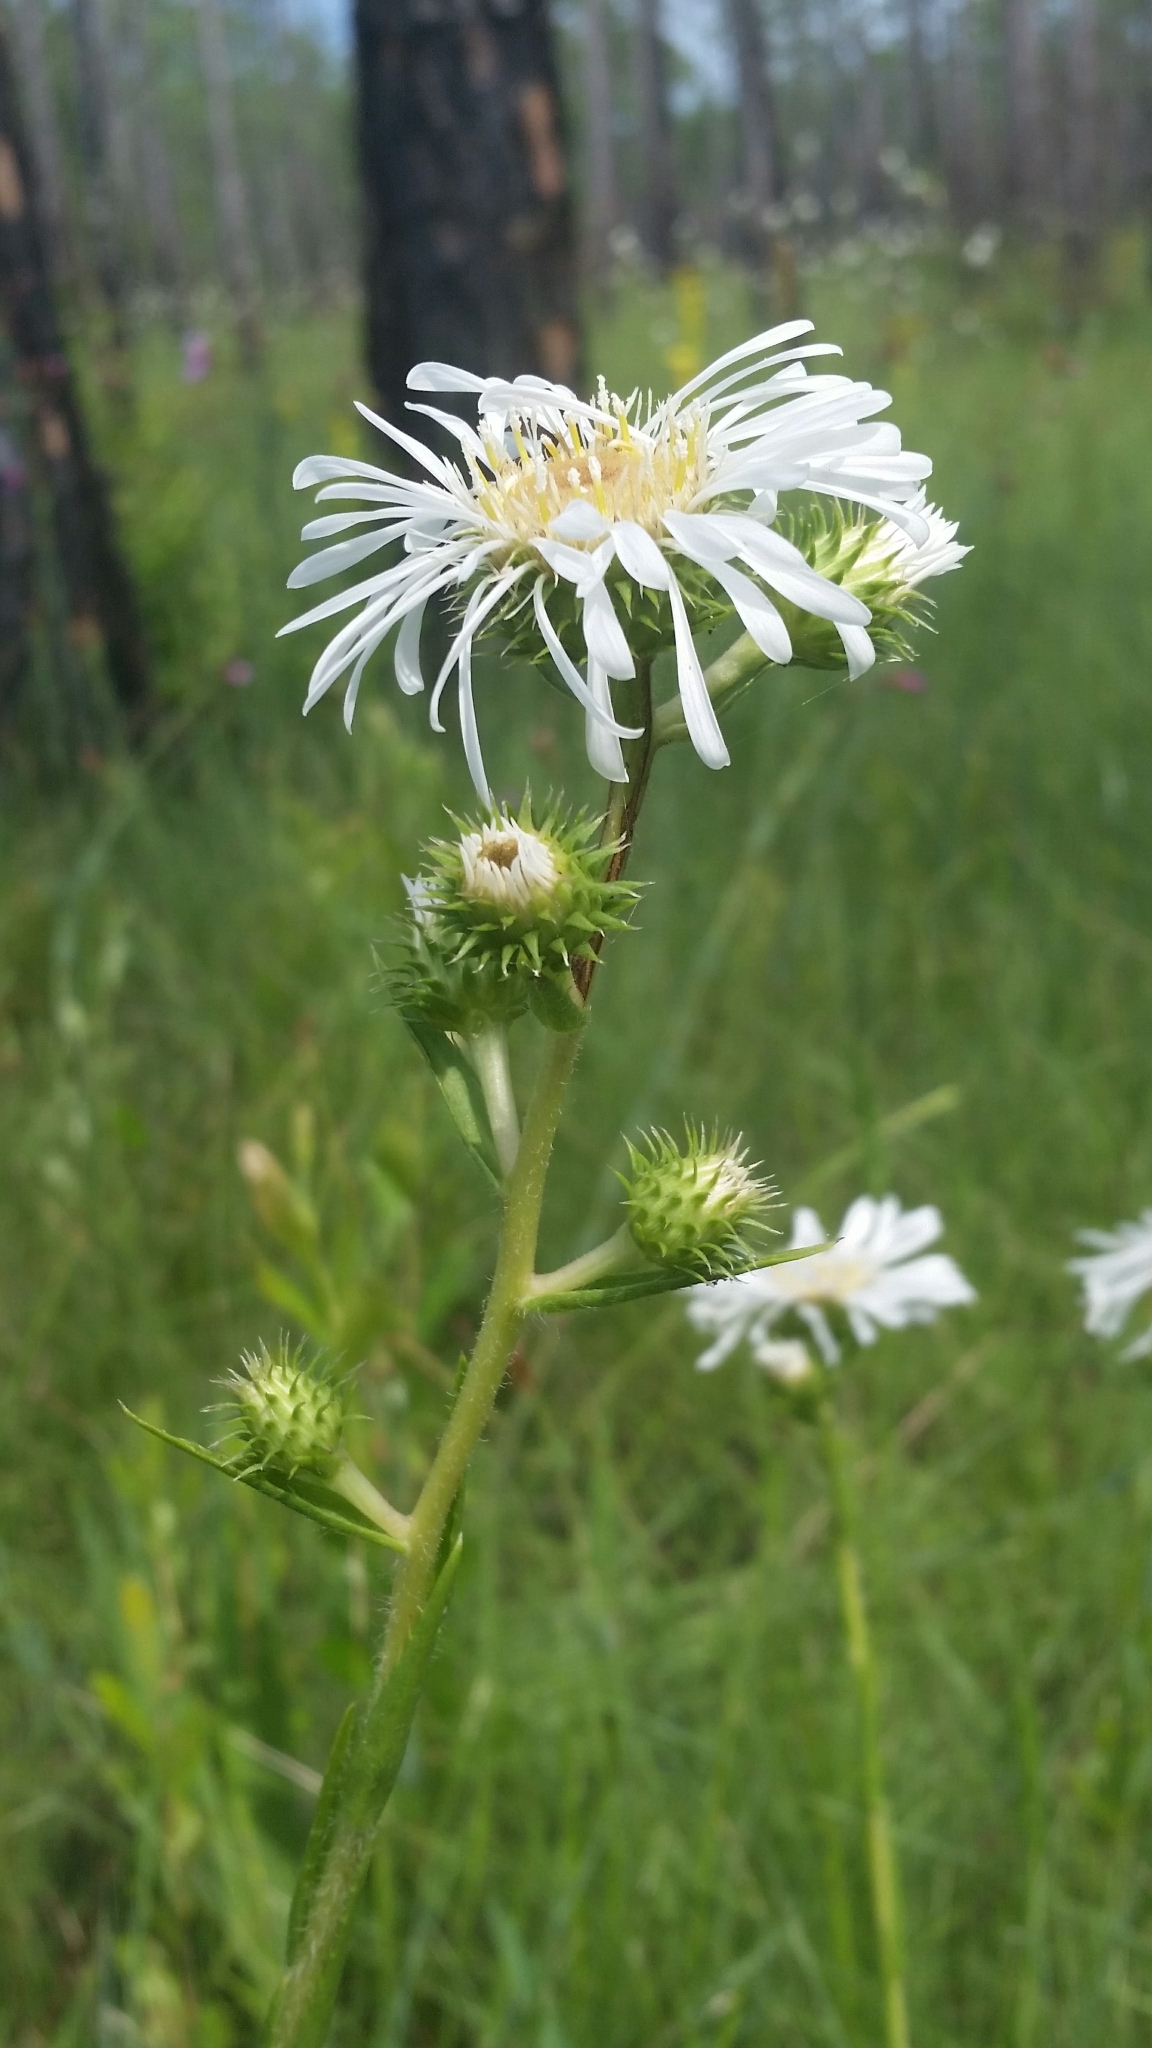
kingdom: Plantae
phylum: Tracheophyta
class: Magnoliopsida
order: Asterales
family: Asteraceae
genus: Eurybia
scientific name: Eurybia eryngiifolia
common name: Thistle-leaf aster
